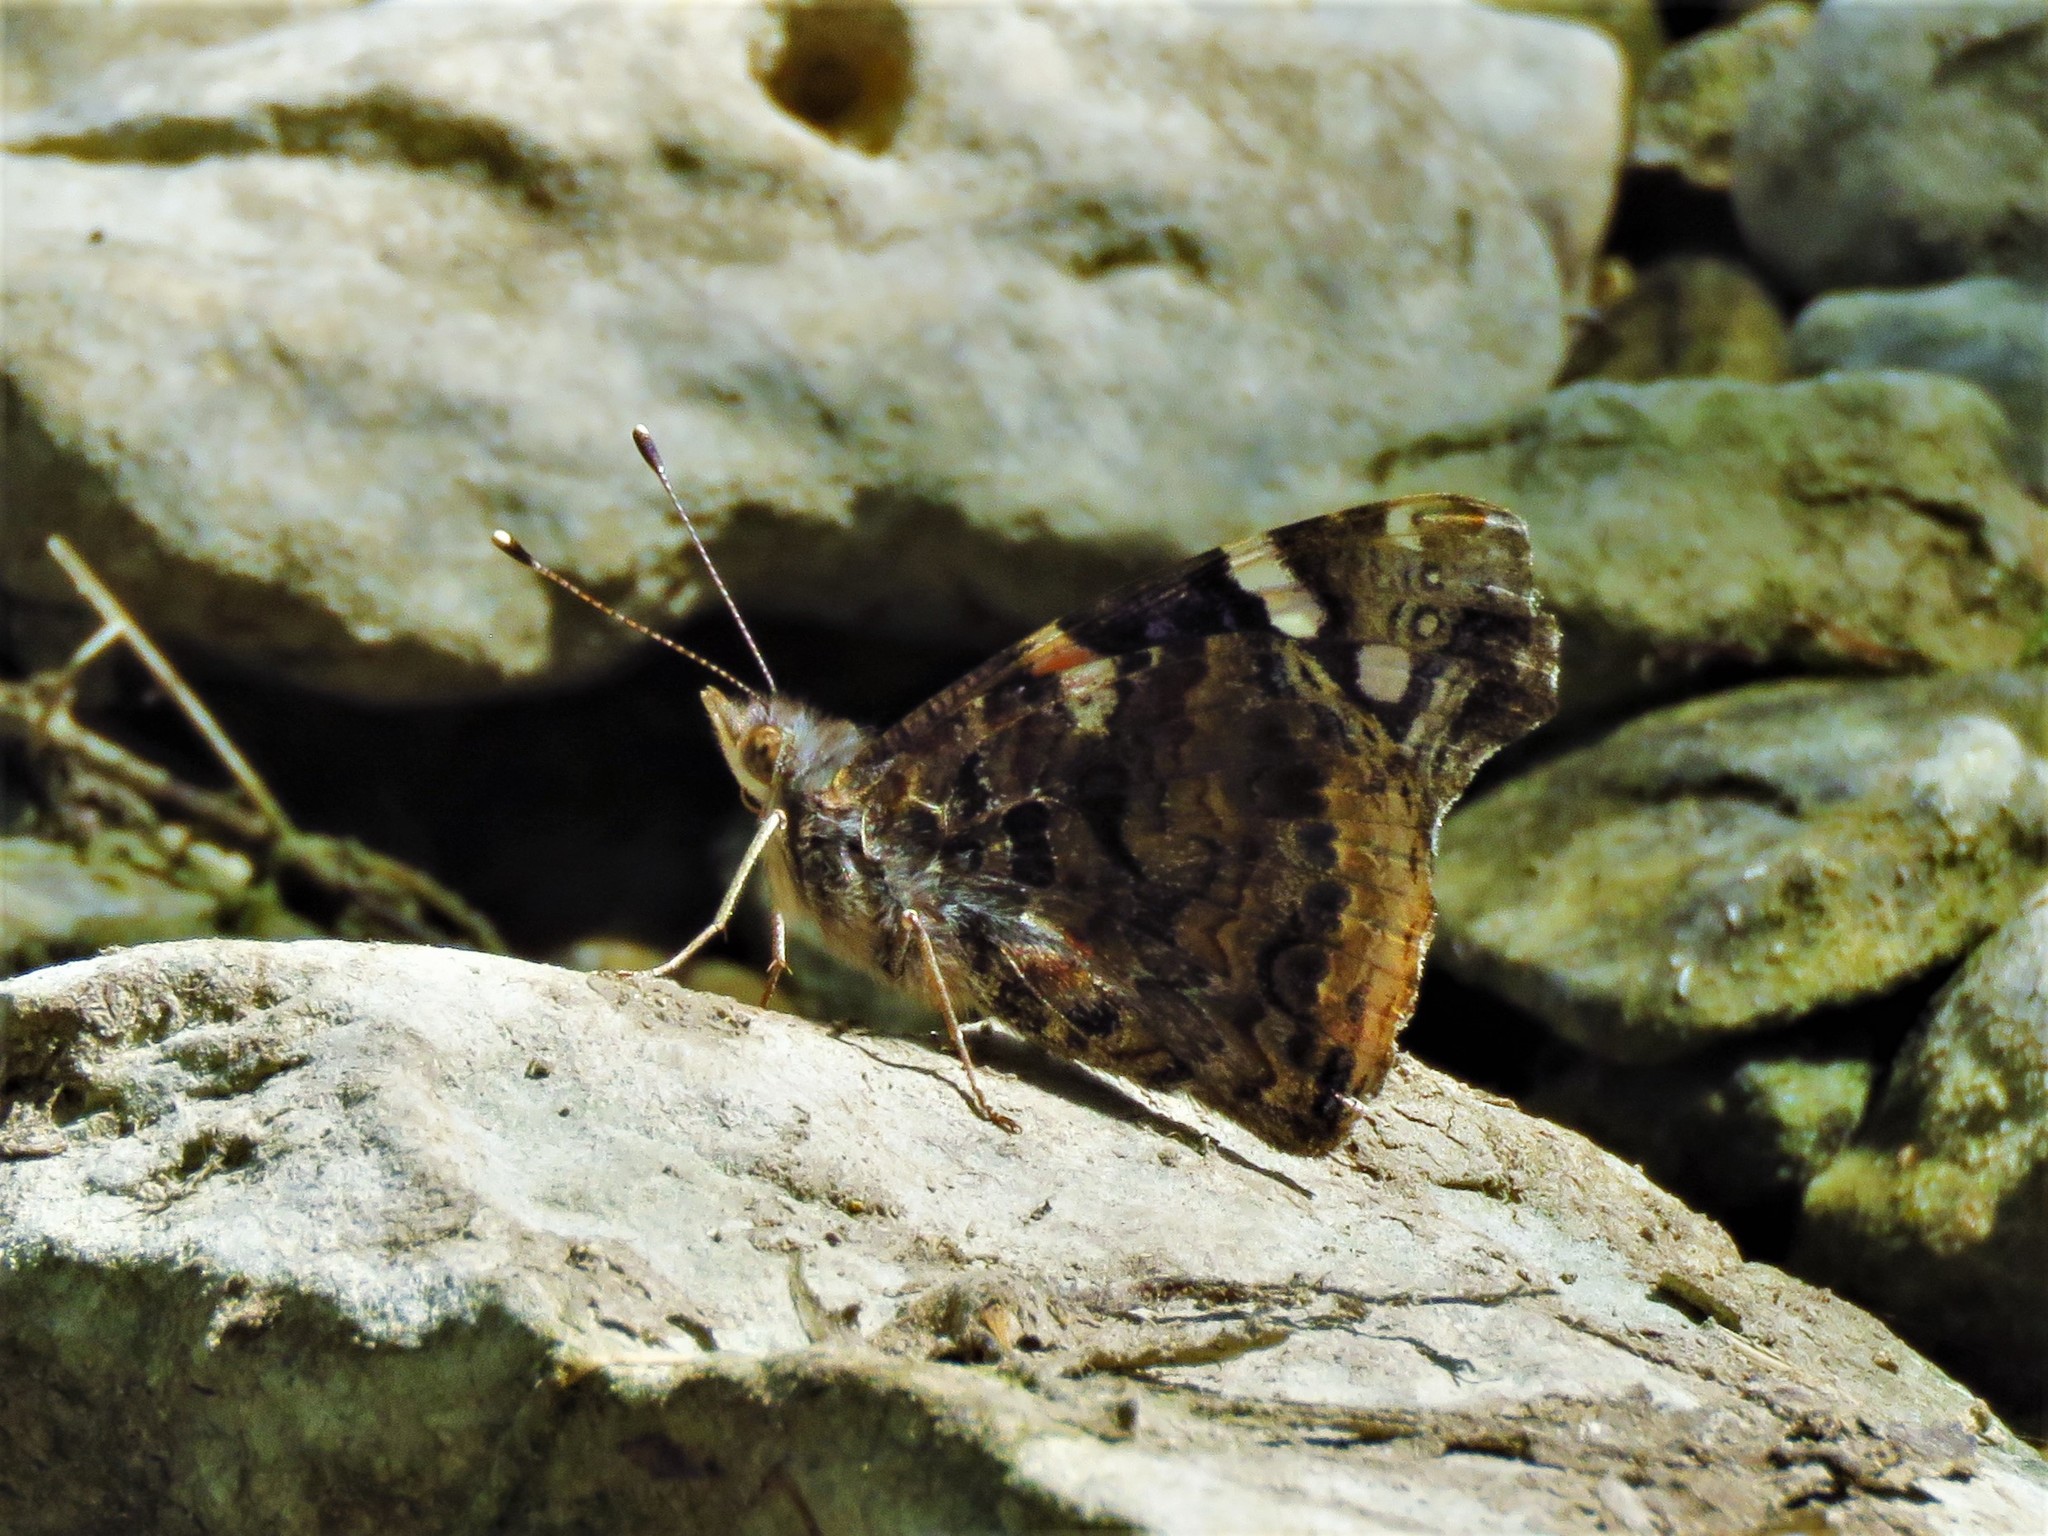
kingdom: Animalia
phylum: Arthropoda
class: Insecta
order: Lepidoptera
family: Nymphalidae
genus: Vanessa
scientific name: Vanessa atalanta
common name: Red admiral
